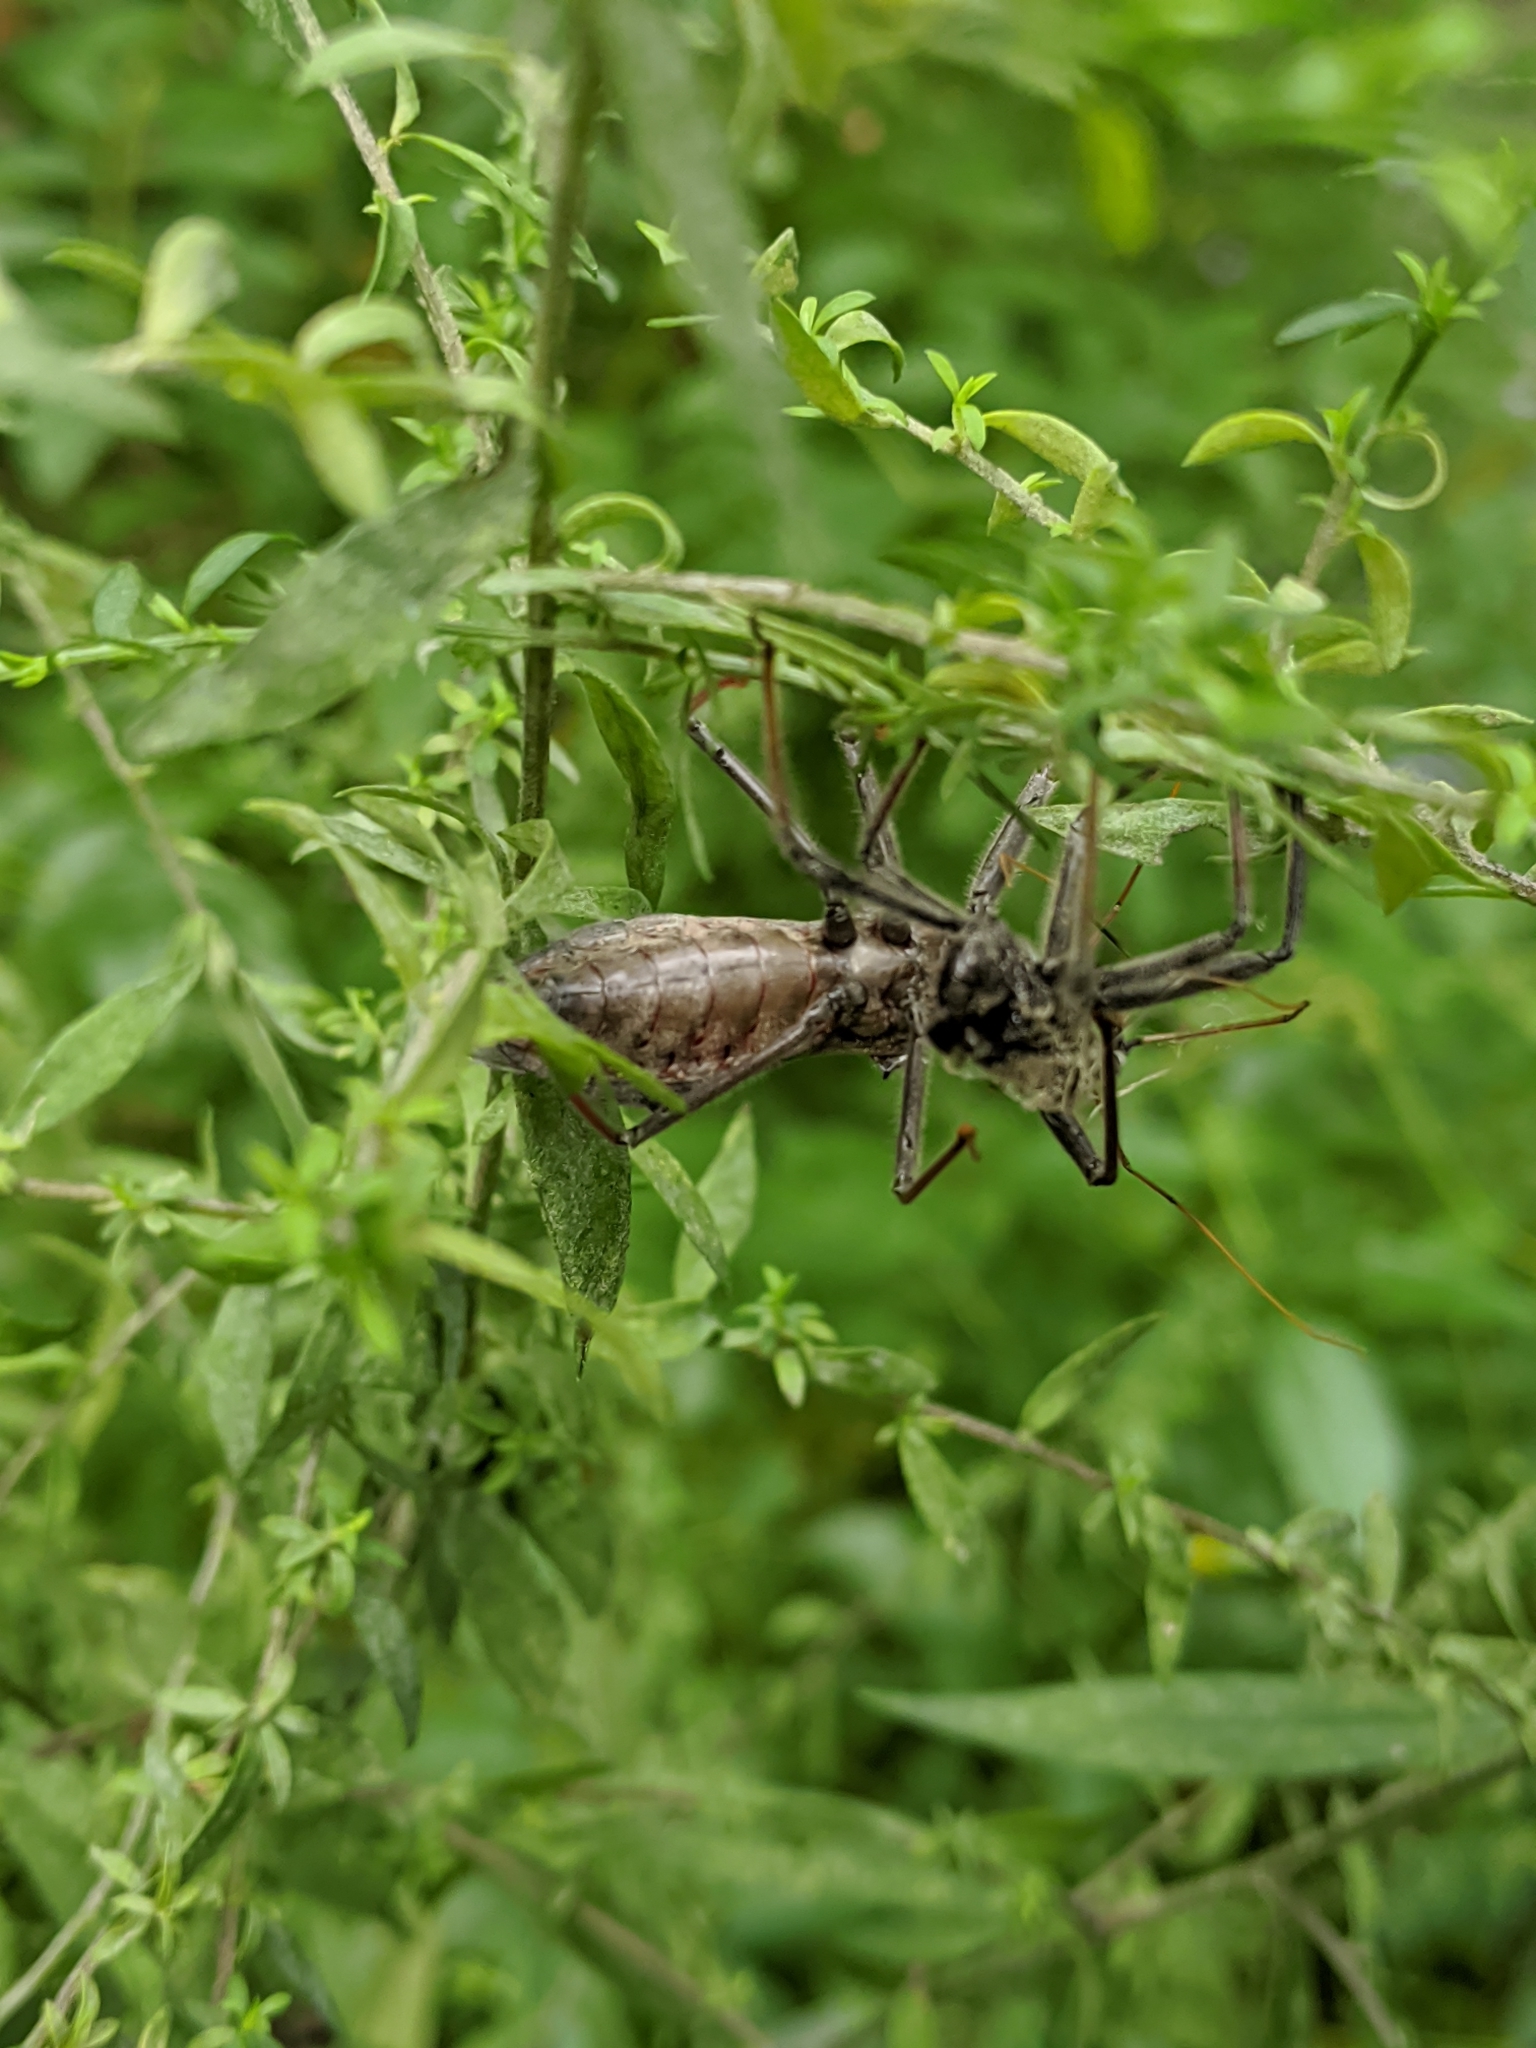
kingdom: Animalia
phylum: Arthropoda
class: Insecta
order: Hemiptera
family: Reduviidae
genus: Arilus
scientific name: Arilus cristatus
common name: North american wheel bug
